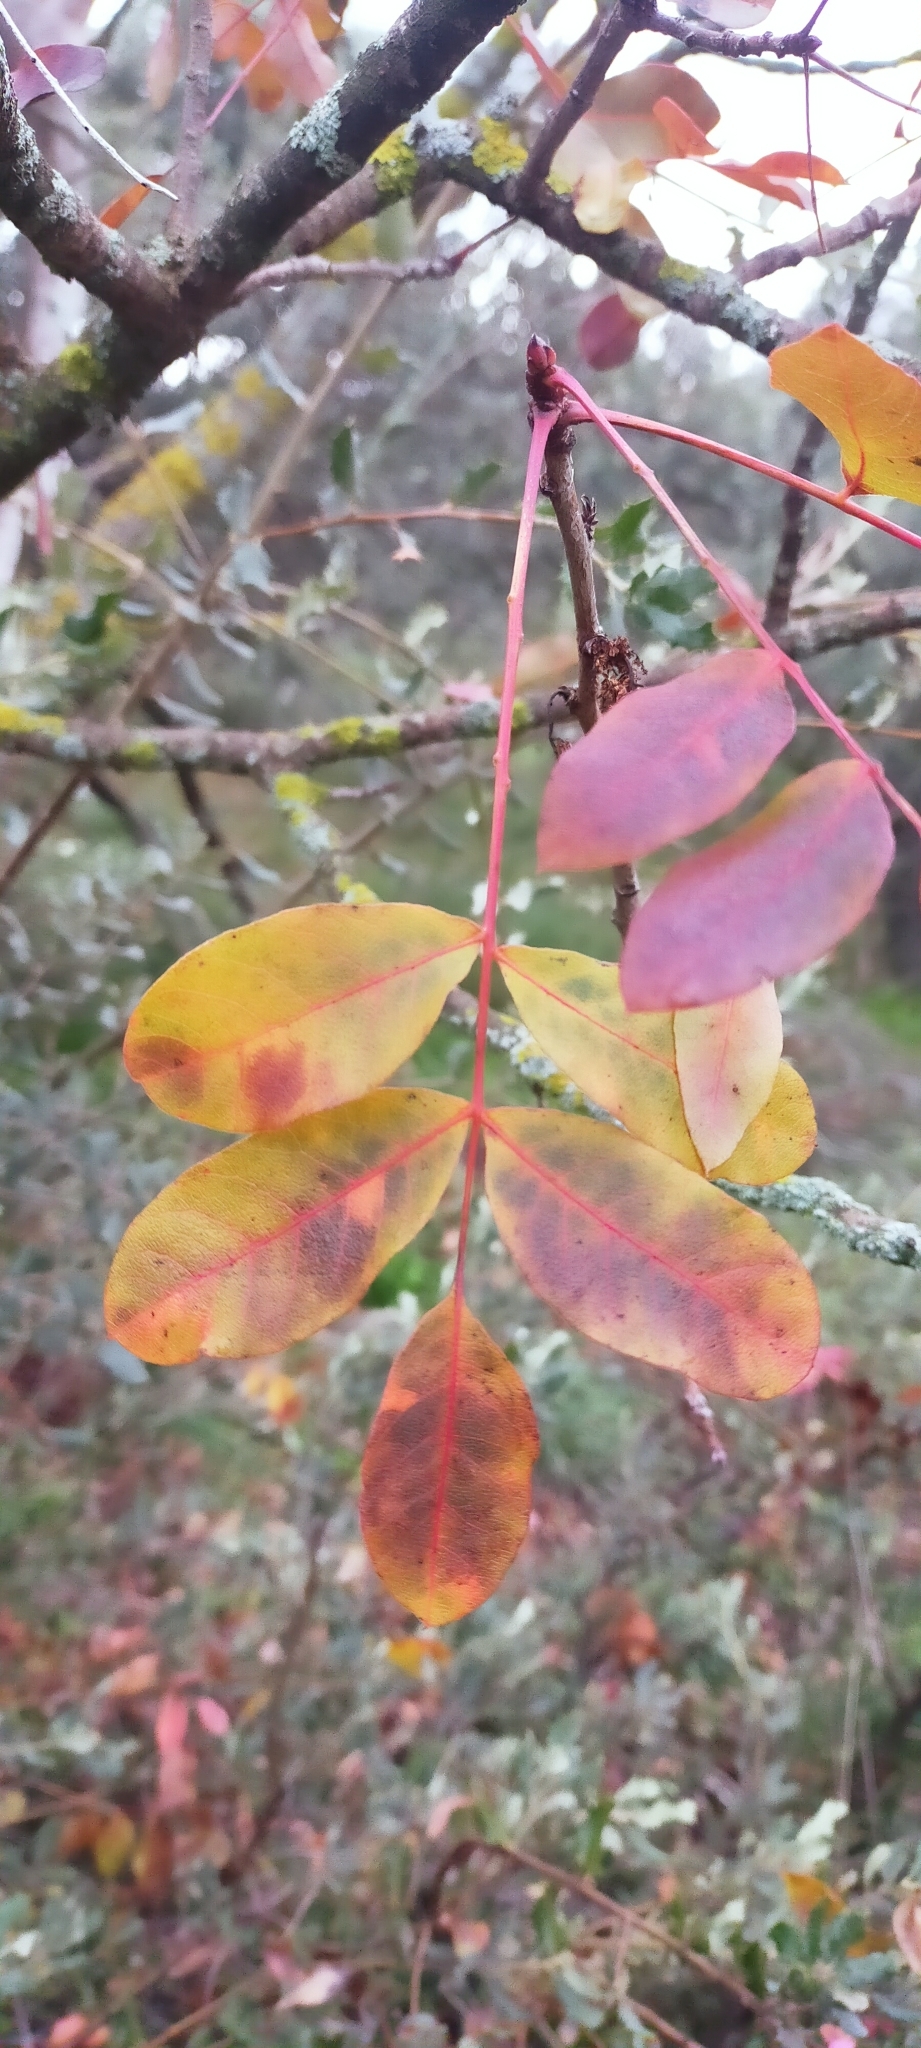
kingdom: Plantae
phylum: Tracheophyta
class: Magnoliopsida
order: Sapindales
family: Anacardiaceae
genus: Pistacia
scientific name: Pistacia terebinthus
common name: Terebinth
